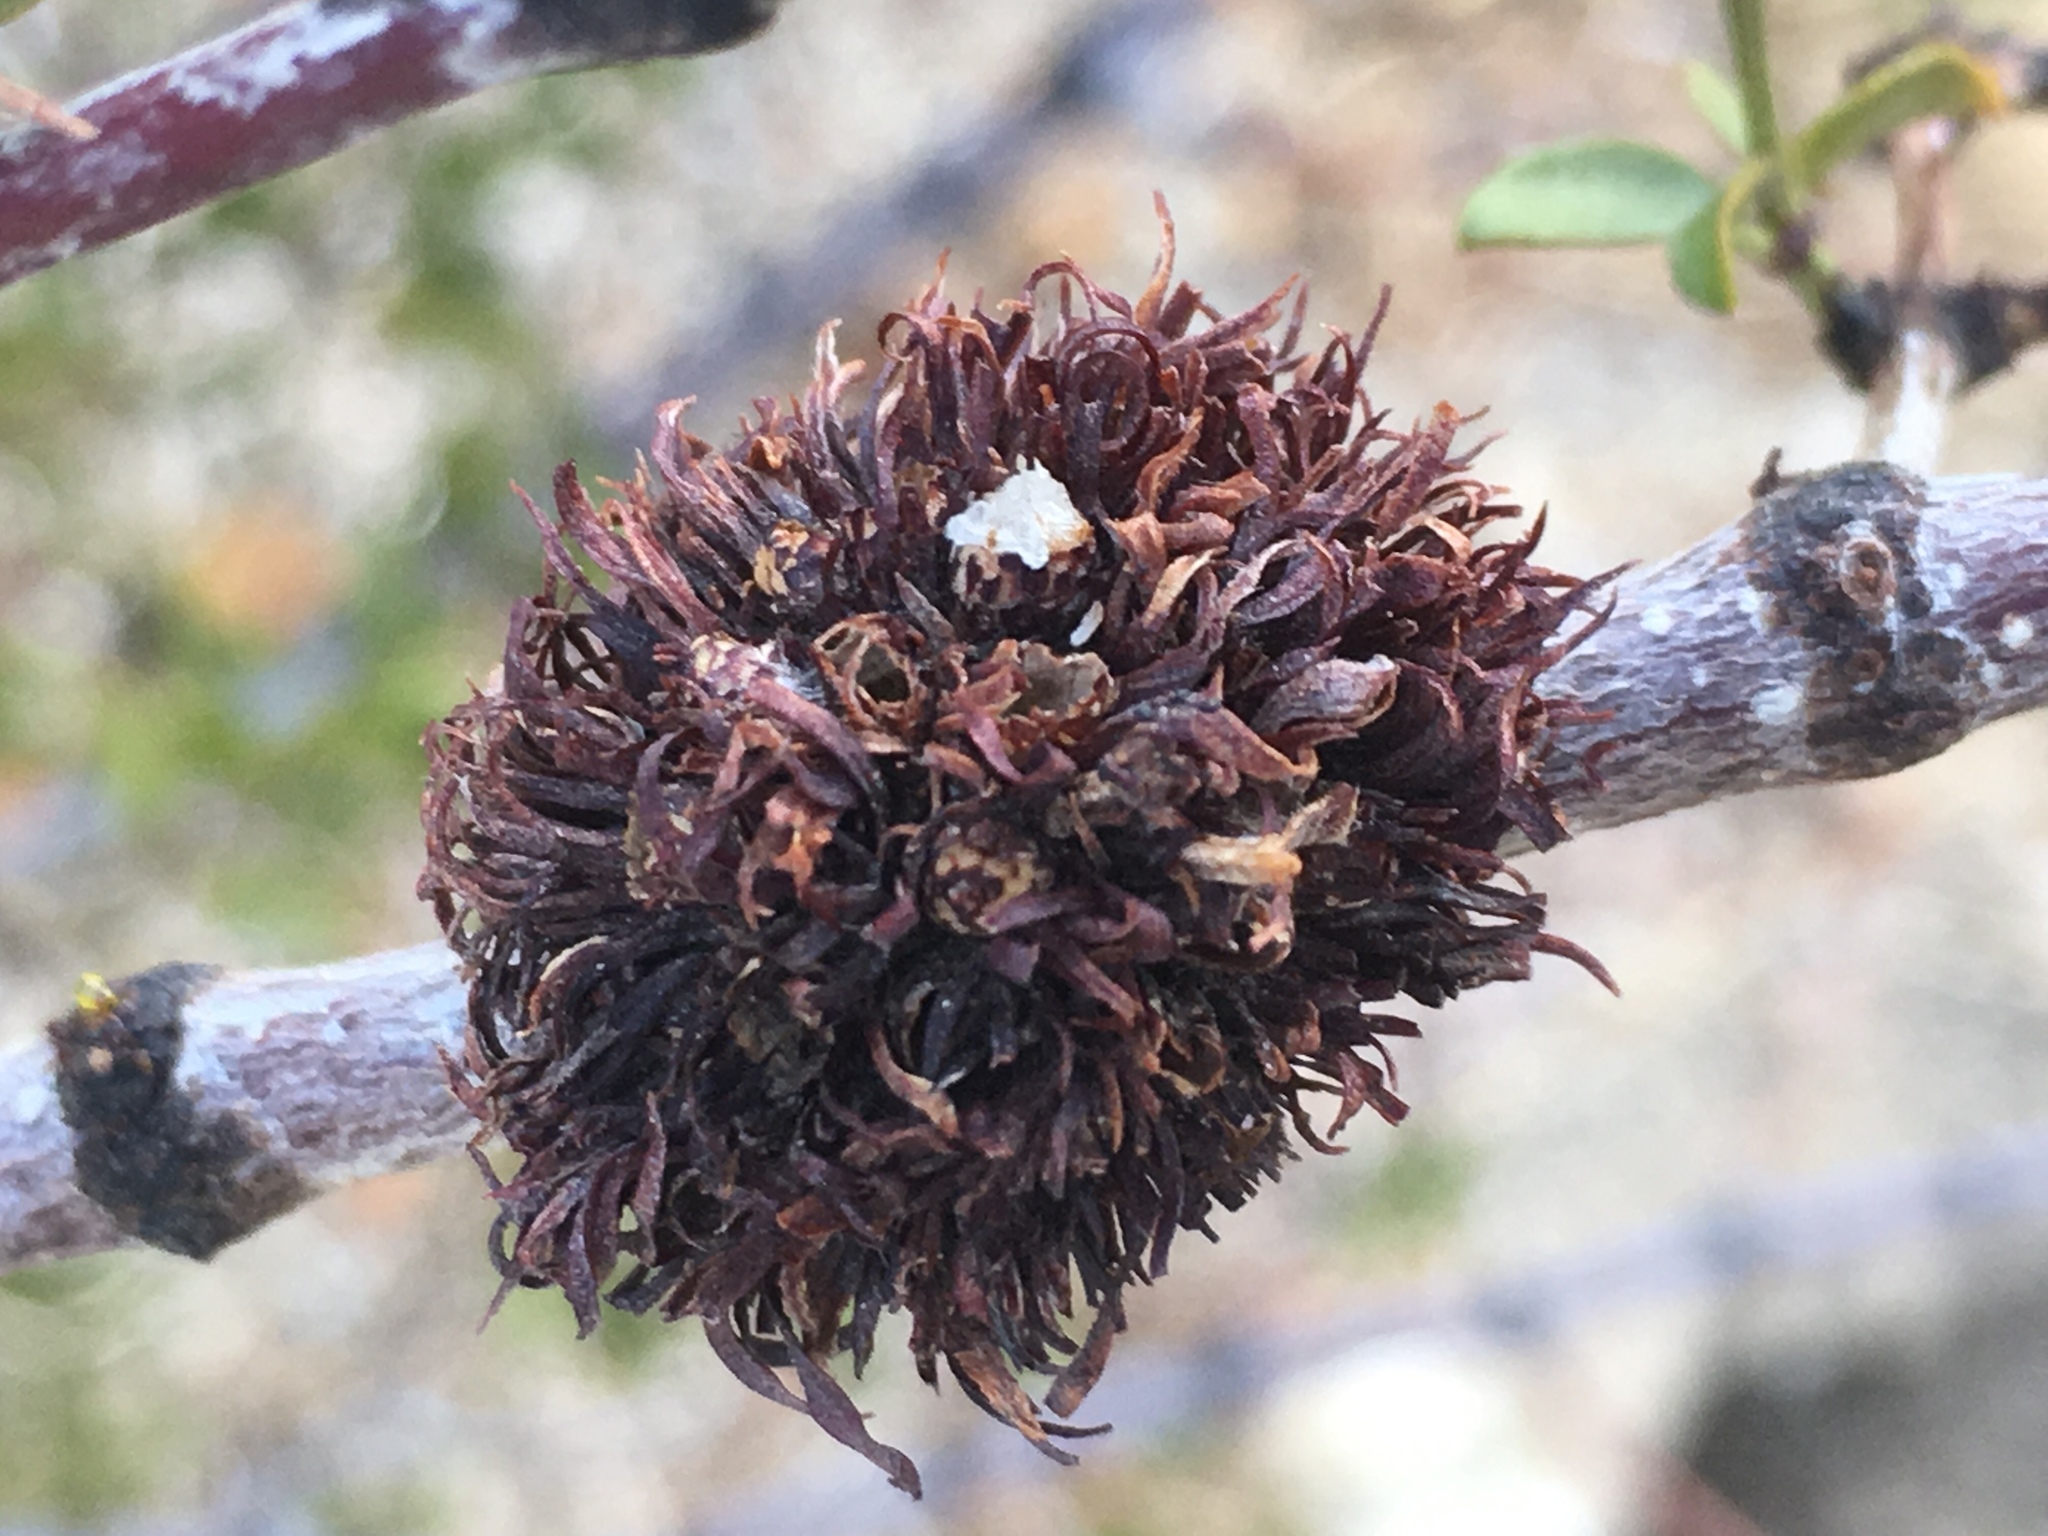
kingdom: Animalia
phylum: Arthropoda
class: Insecta
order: Diptera
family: Cecidomyiidae
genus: Asphondylia
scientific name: Asphondylia auripila
